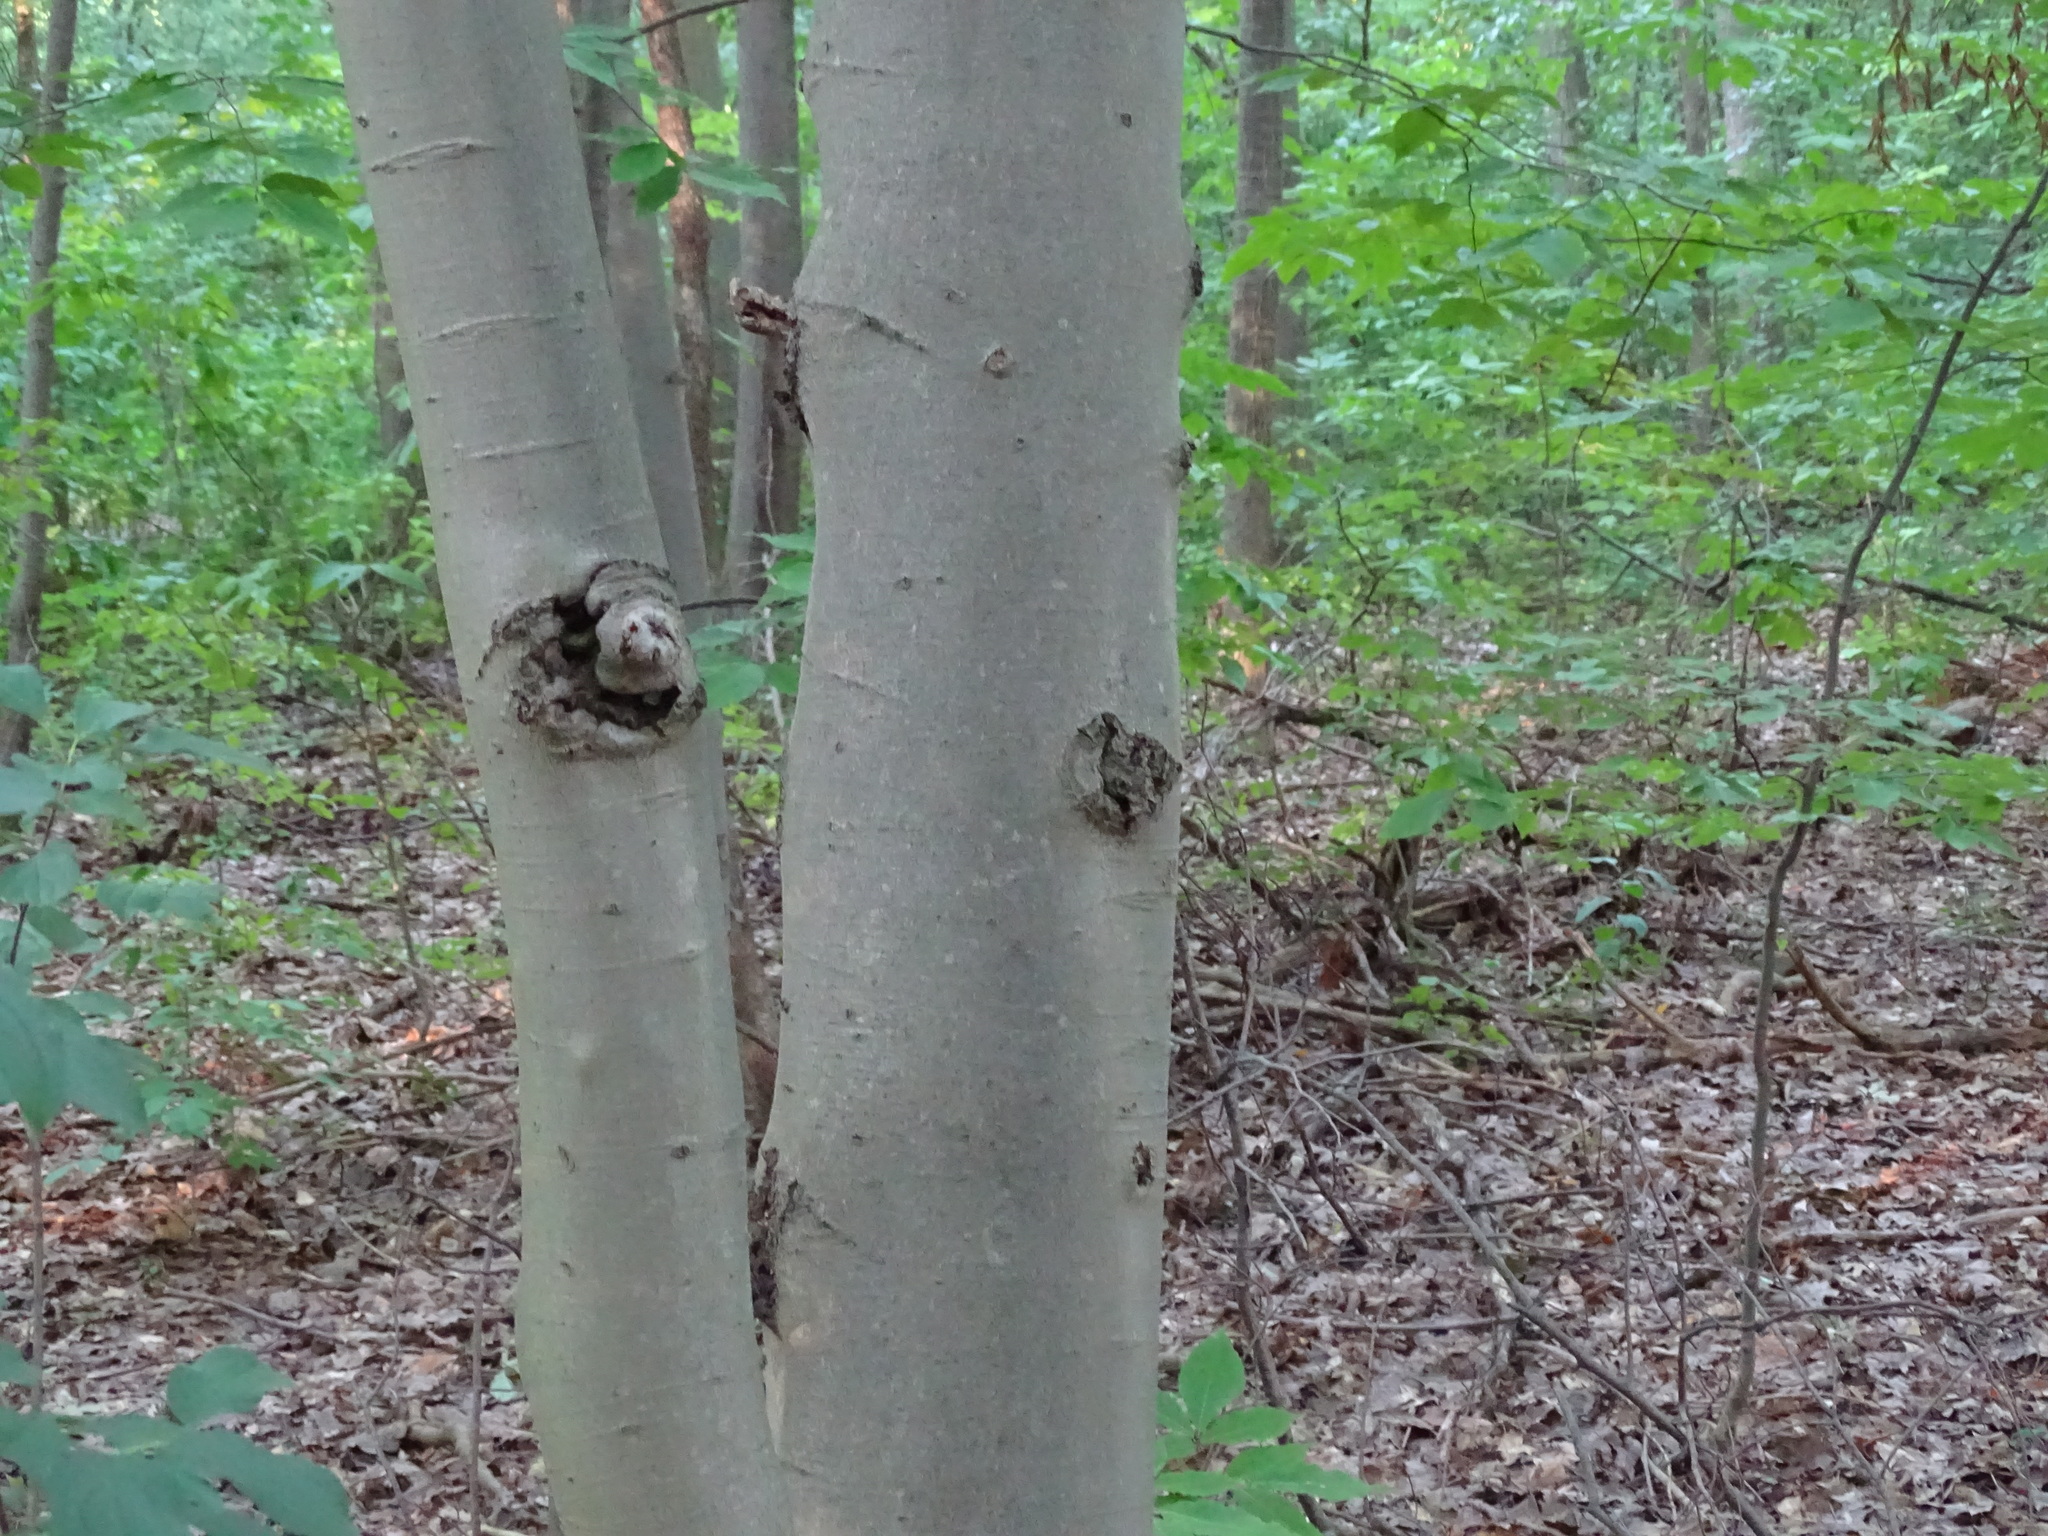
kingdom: Plantae
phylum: Tracheophyta
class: Magnoliopsida
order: Fagales
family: Fagaceae
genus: Fagus
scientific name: Fagus grandifolia
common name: American beech
